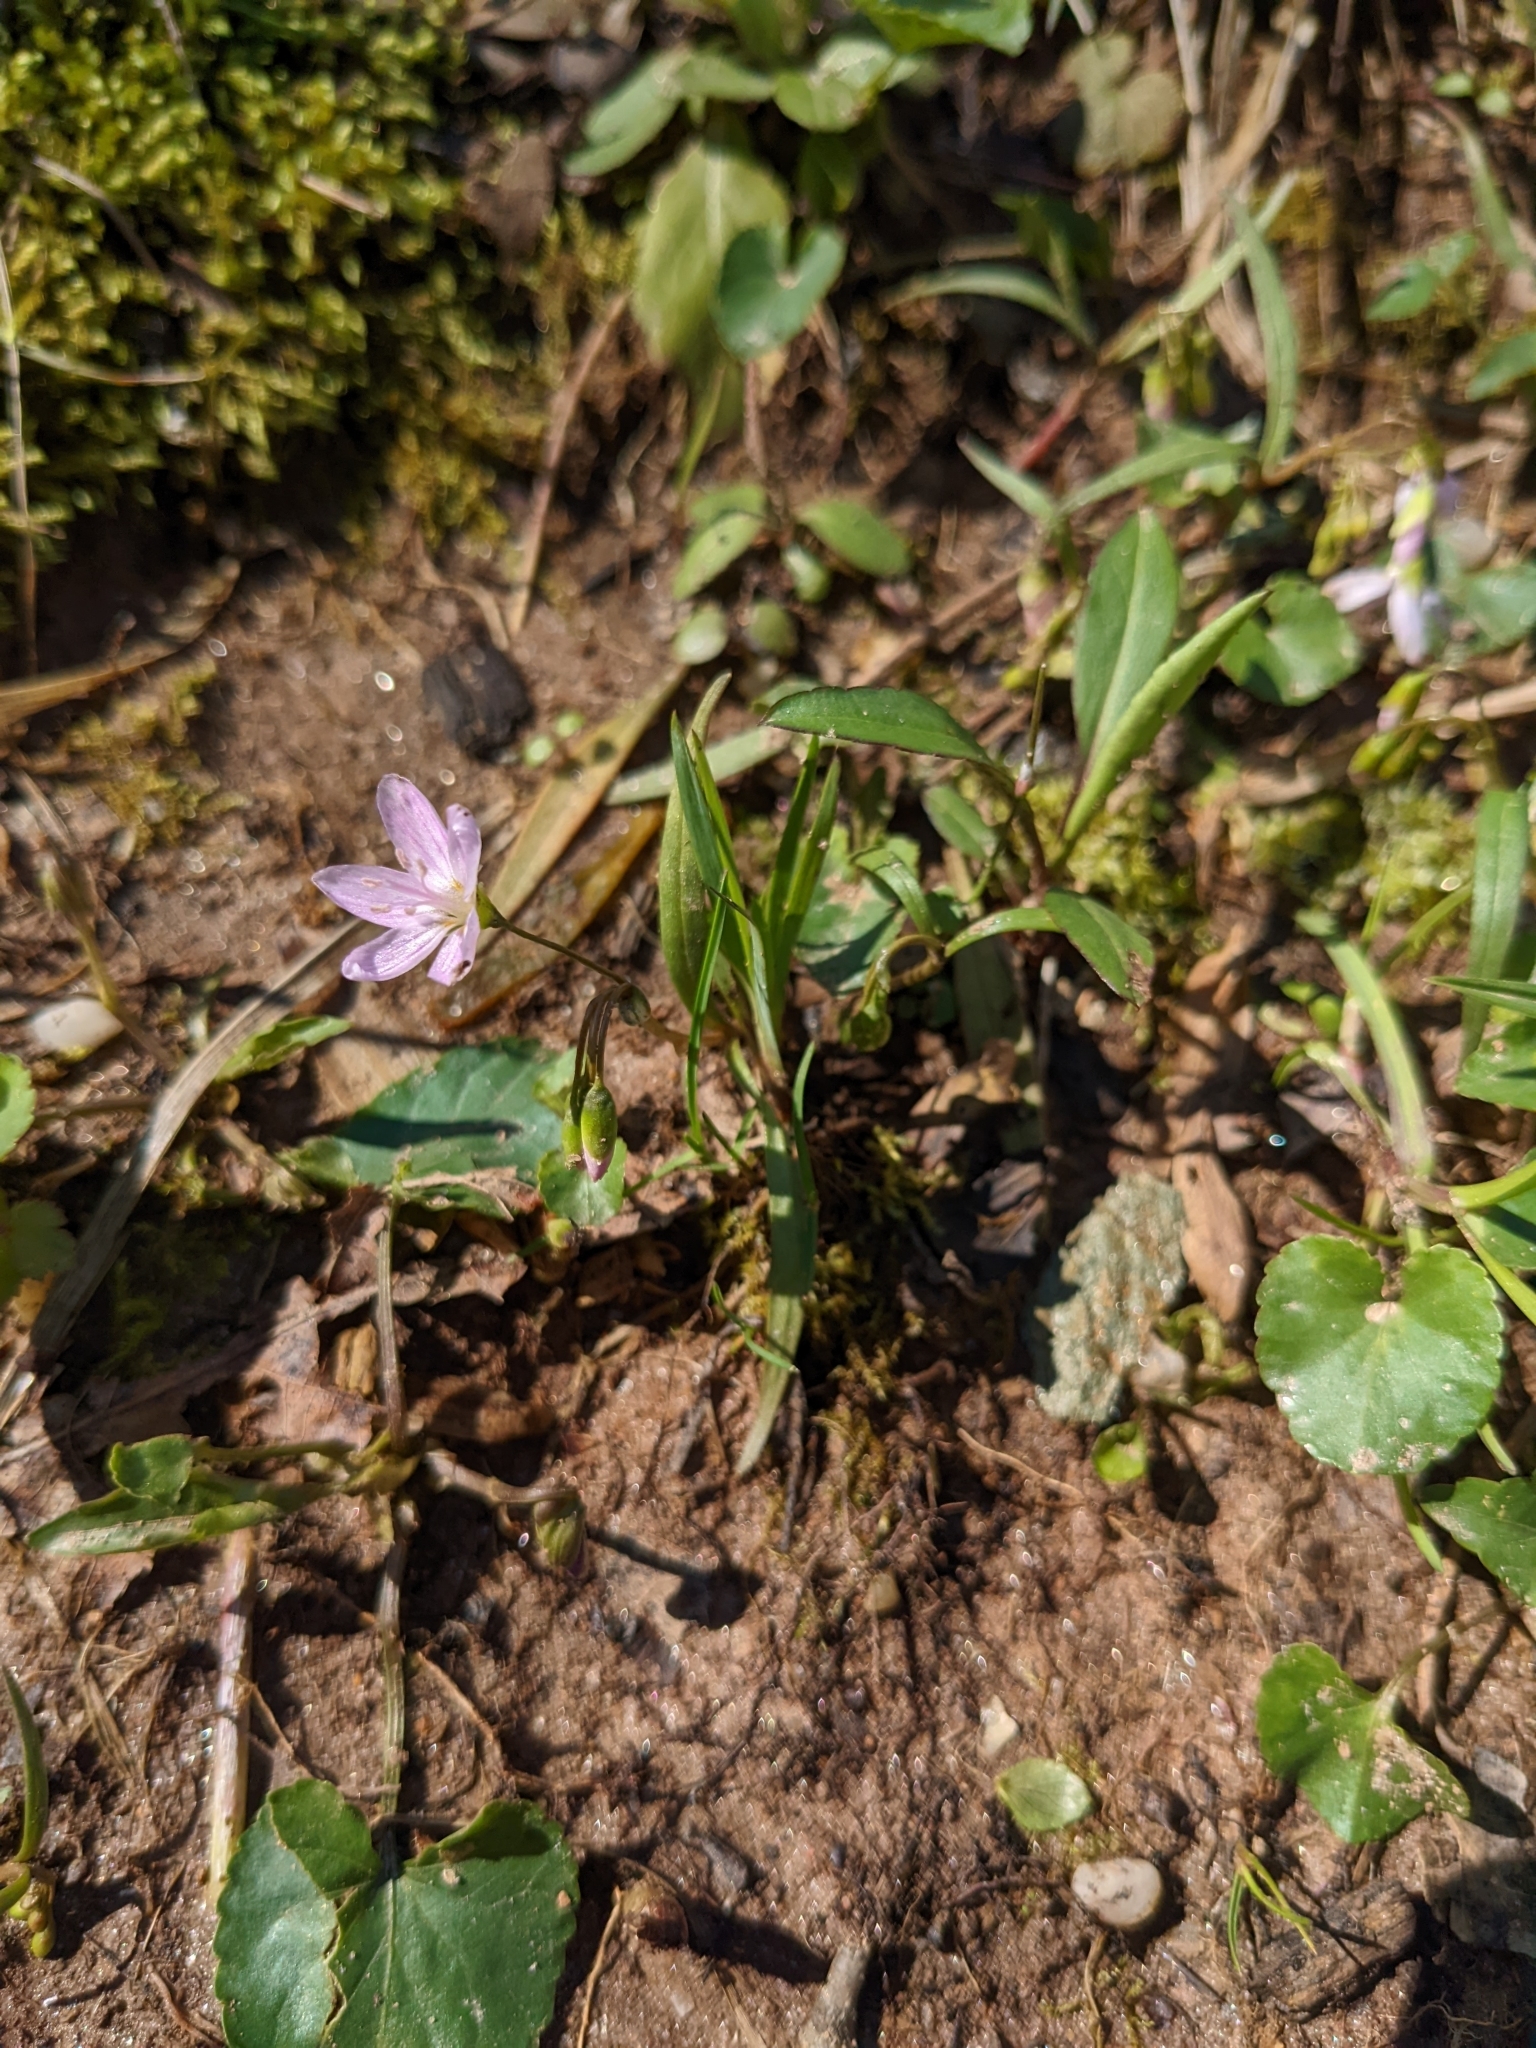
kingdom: Plantae
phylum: Tracheophyta
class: Magnoliopsida
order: Caryophyllales
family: Montiaceae
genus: Claytonia
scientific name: Claytonia virginica
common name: Virginia springbeauty
